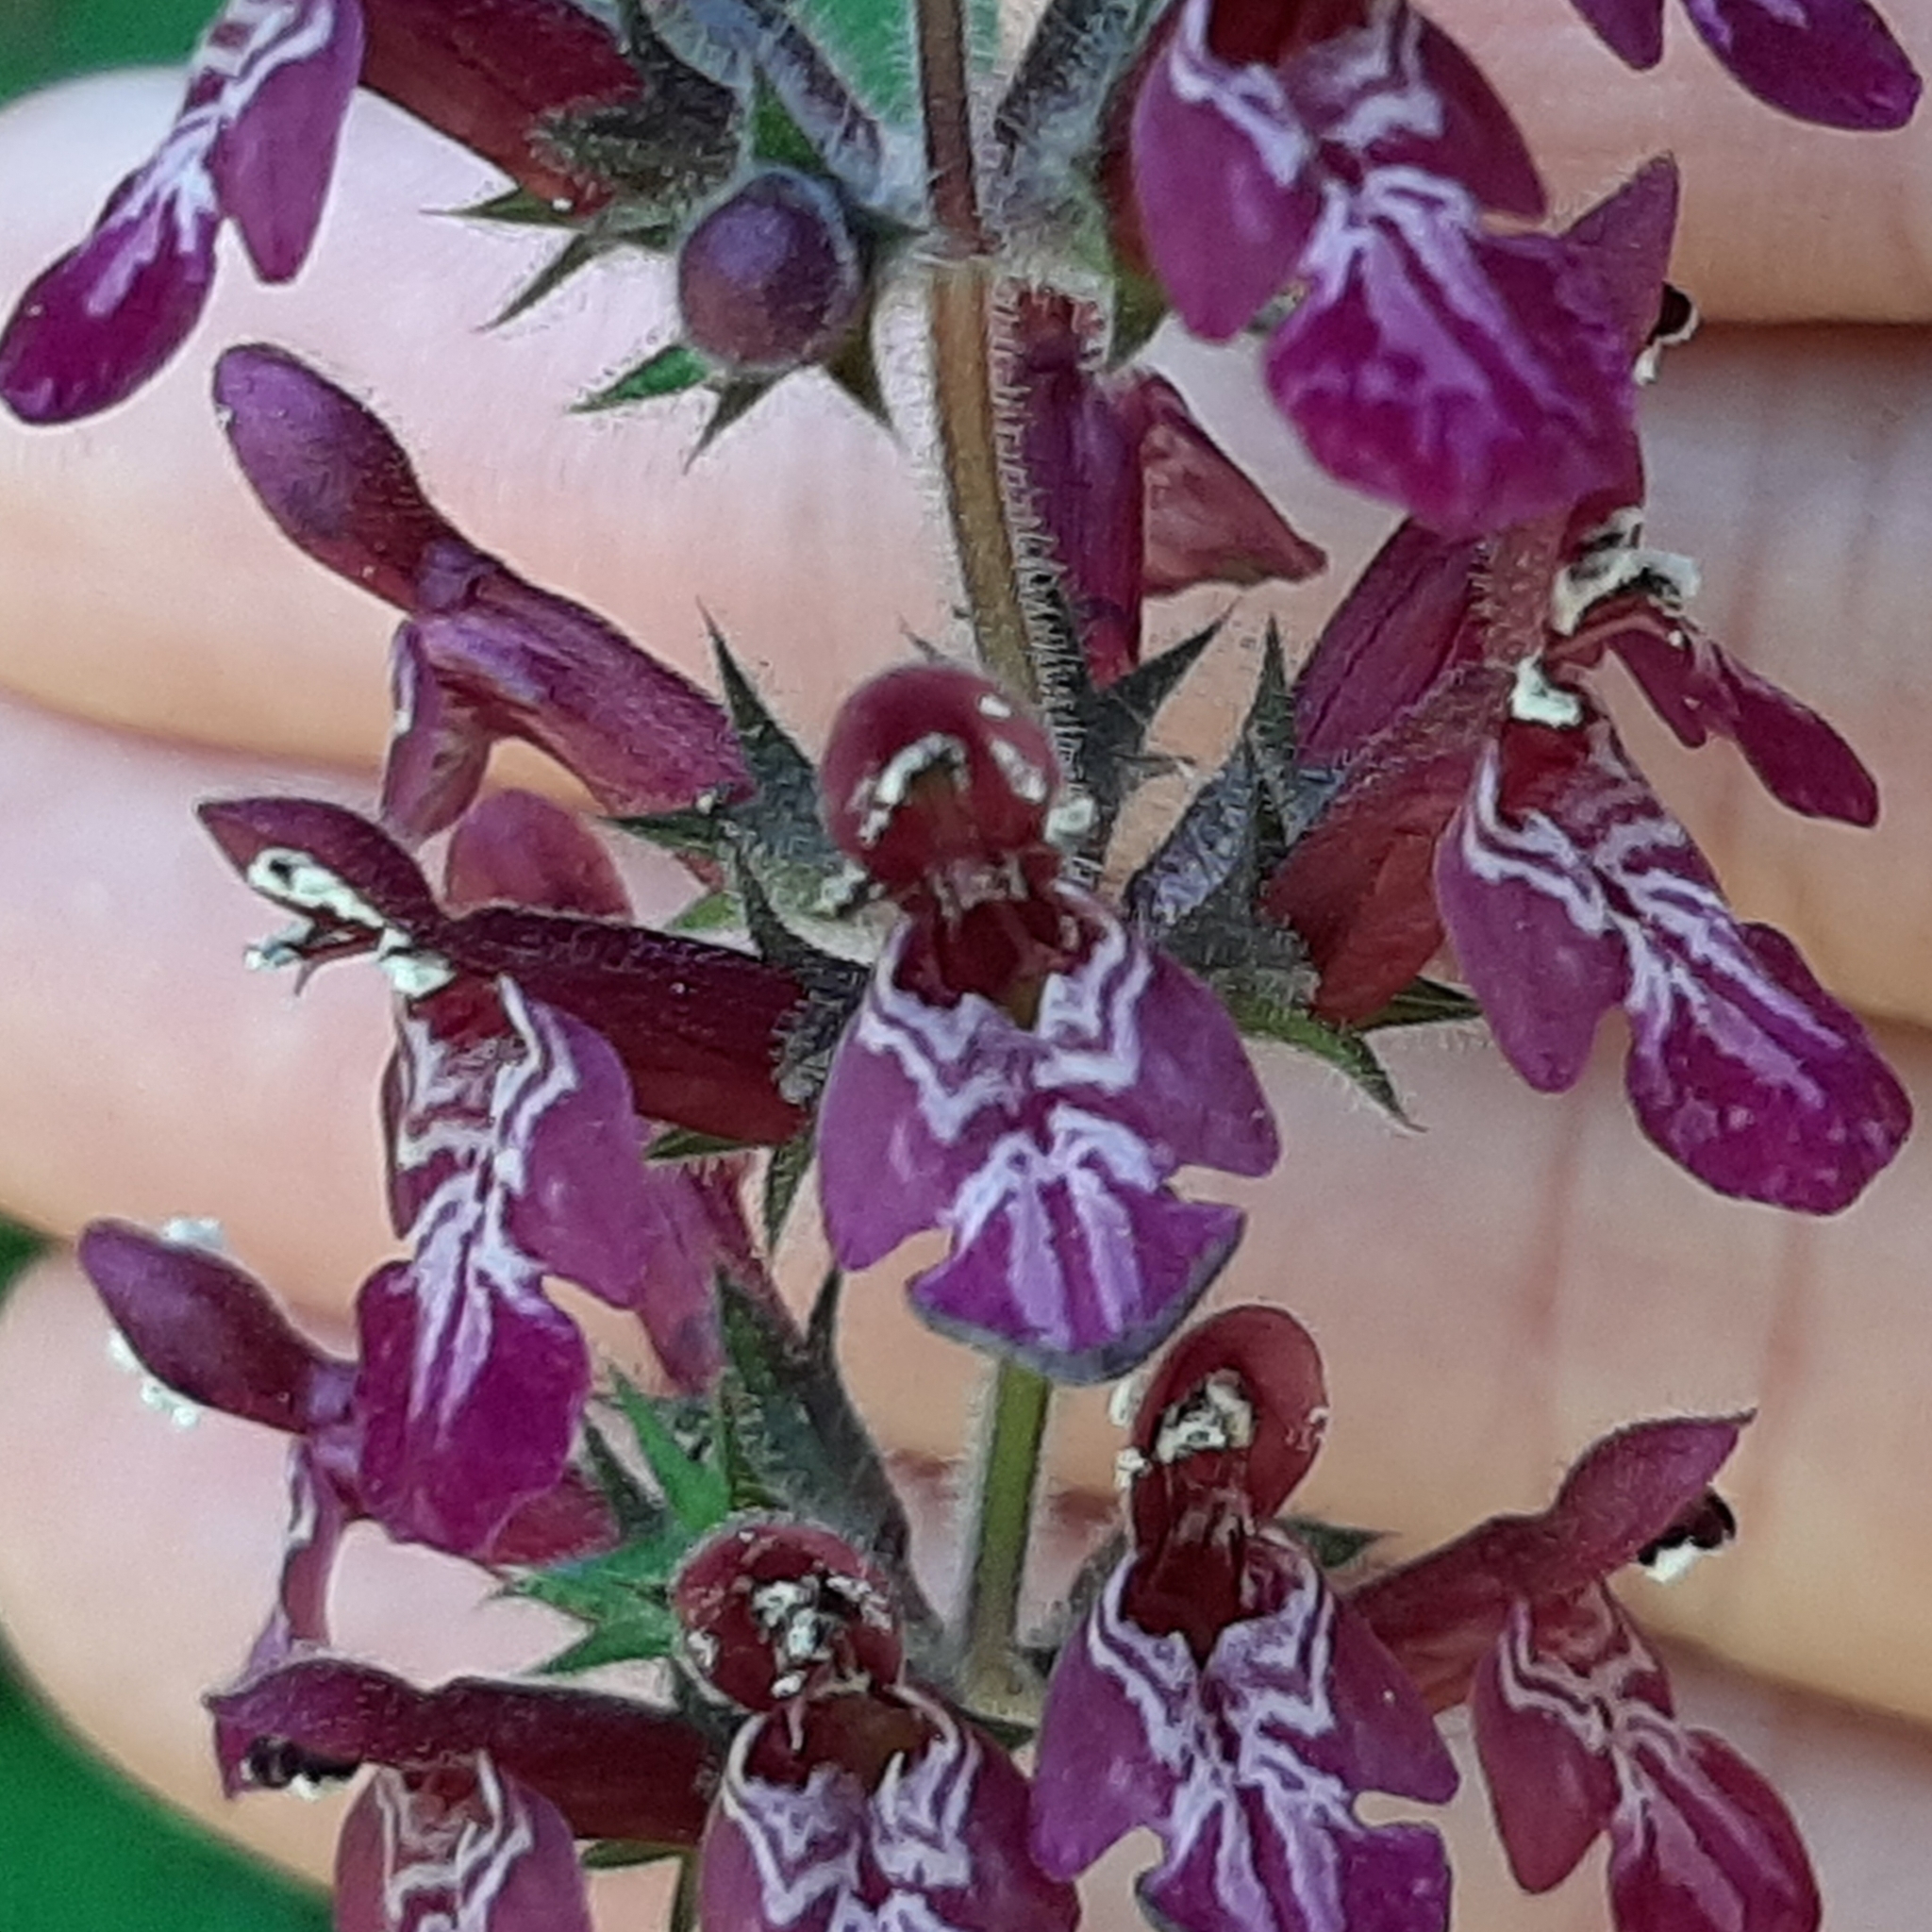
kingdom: Plantae
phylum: Tracheophyta
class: Magnoliopsida
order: Lamiales
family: Lamiaceae
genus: Stachys
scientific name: Stachys sylvatica
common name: Hedge woundwort
